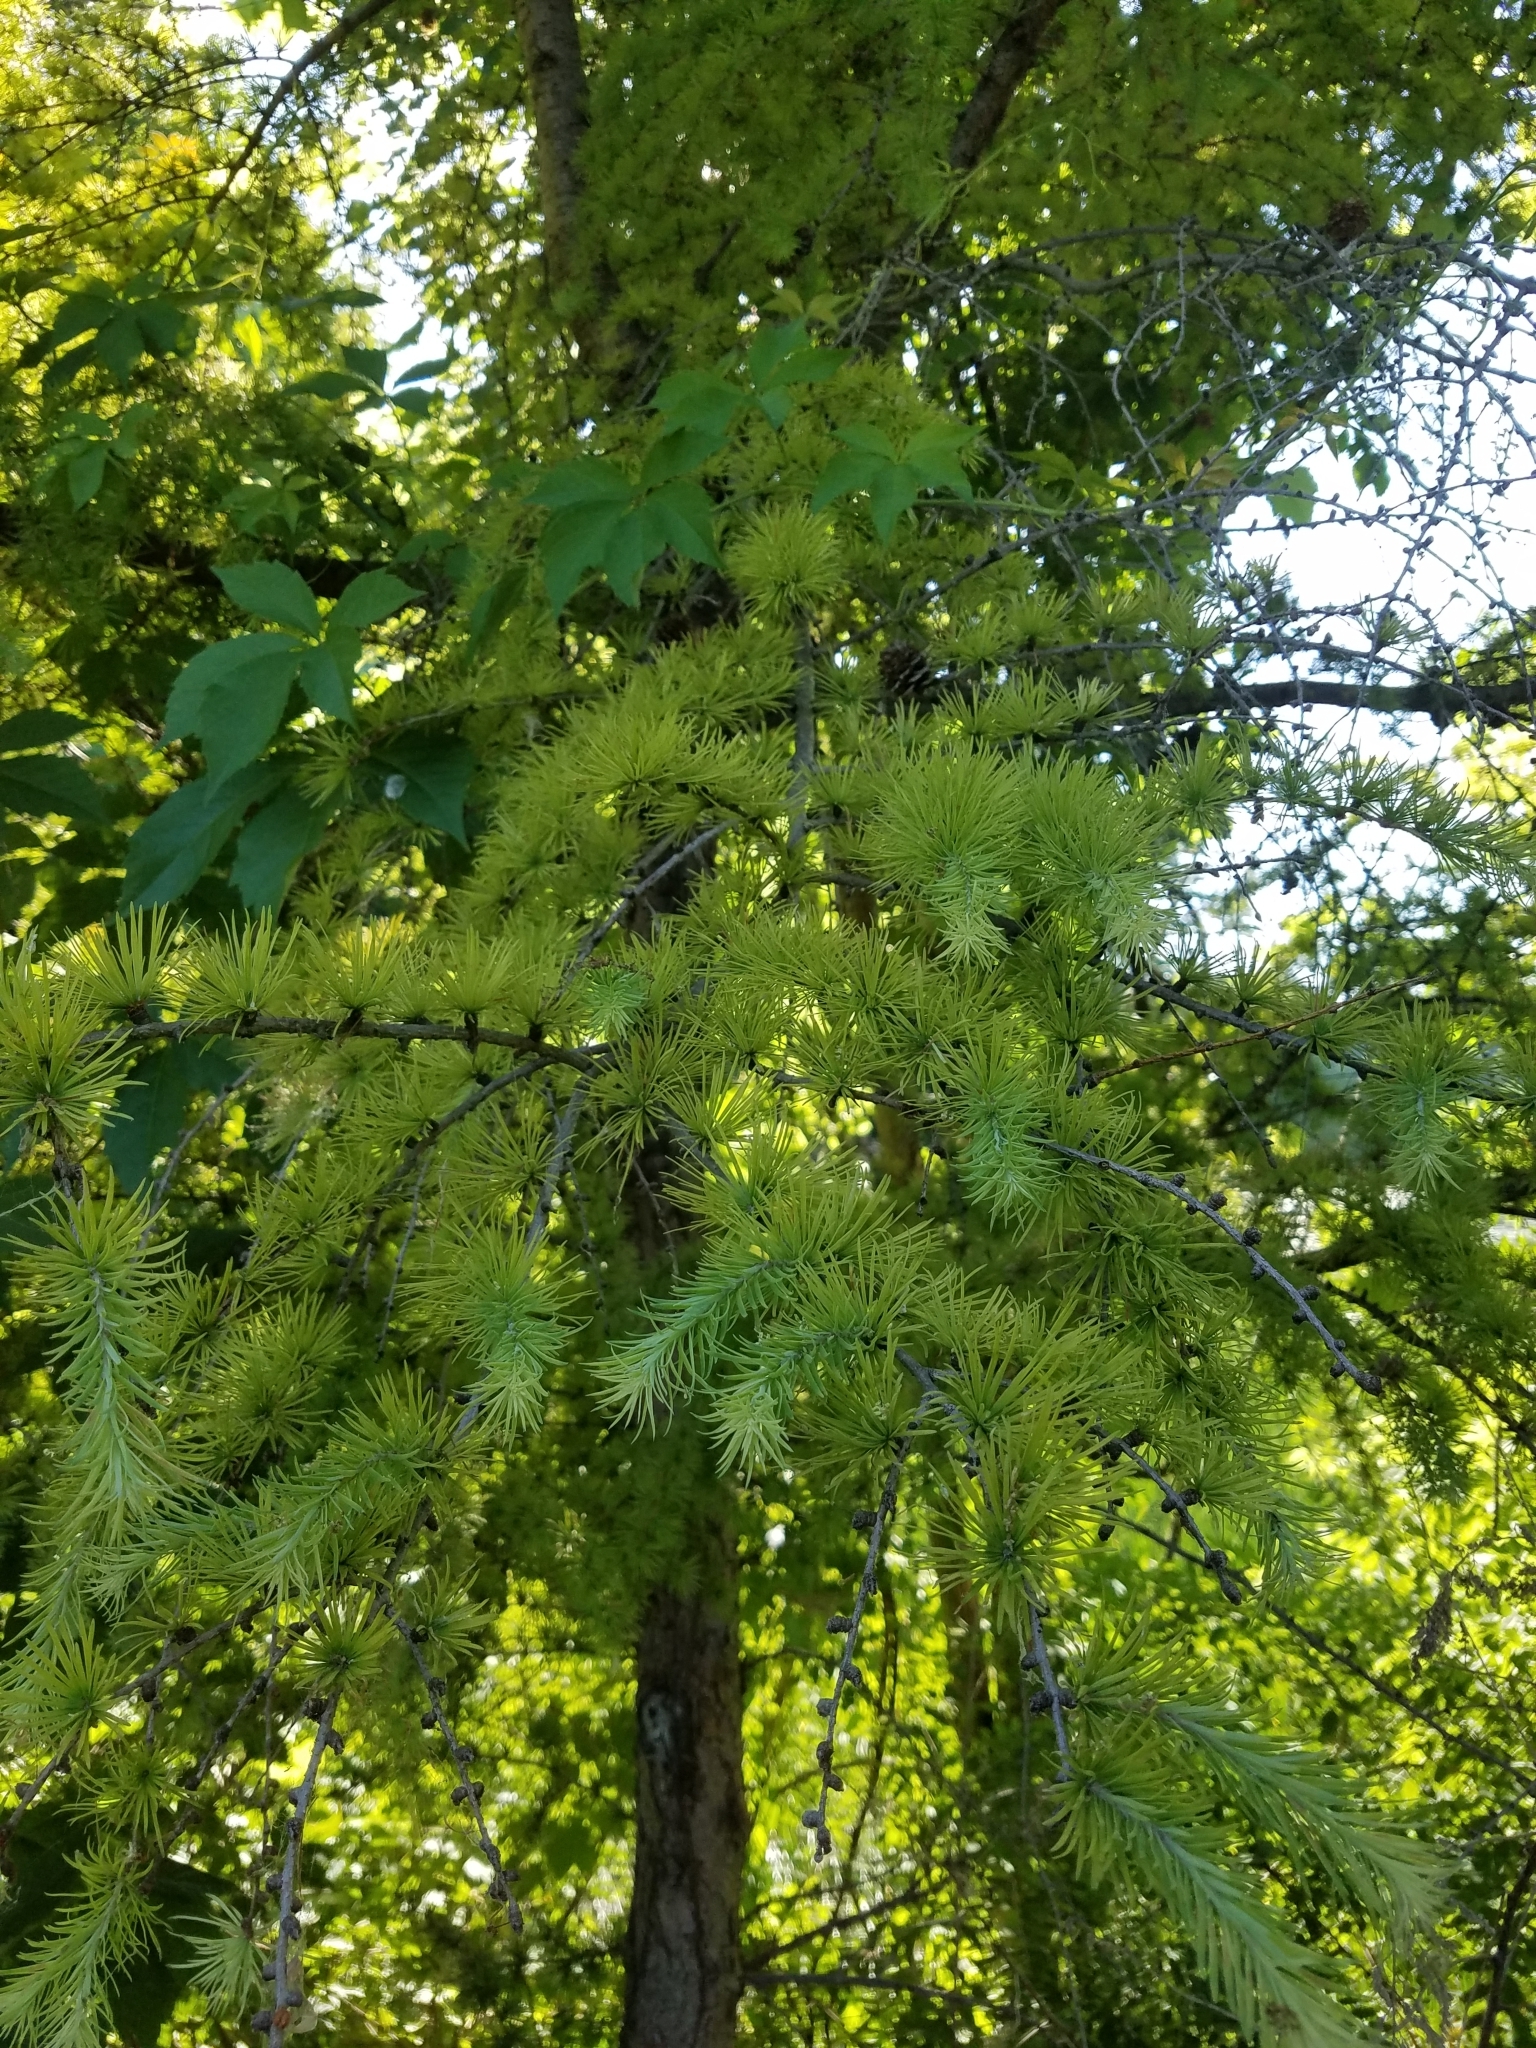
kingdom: Plantae
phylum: Tracheophyta
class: Pinopsida
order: Pinales
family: Pinaceae
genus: Larix
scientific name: Larix laricina
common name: American larch
